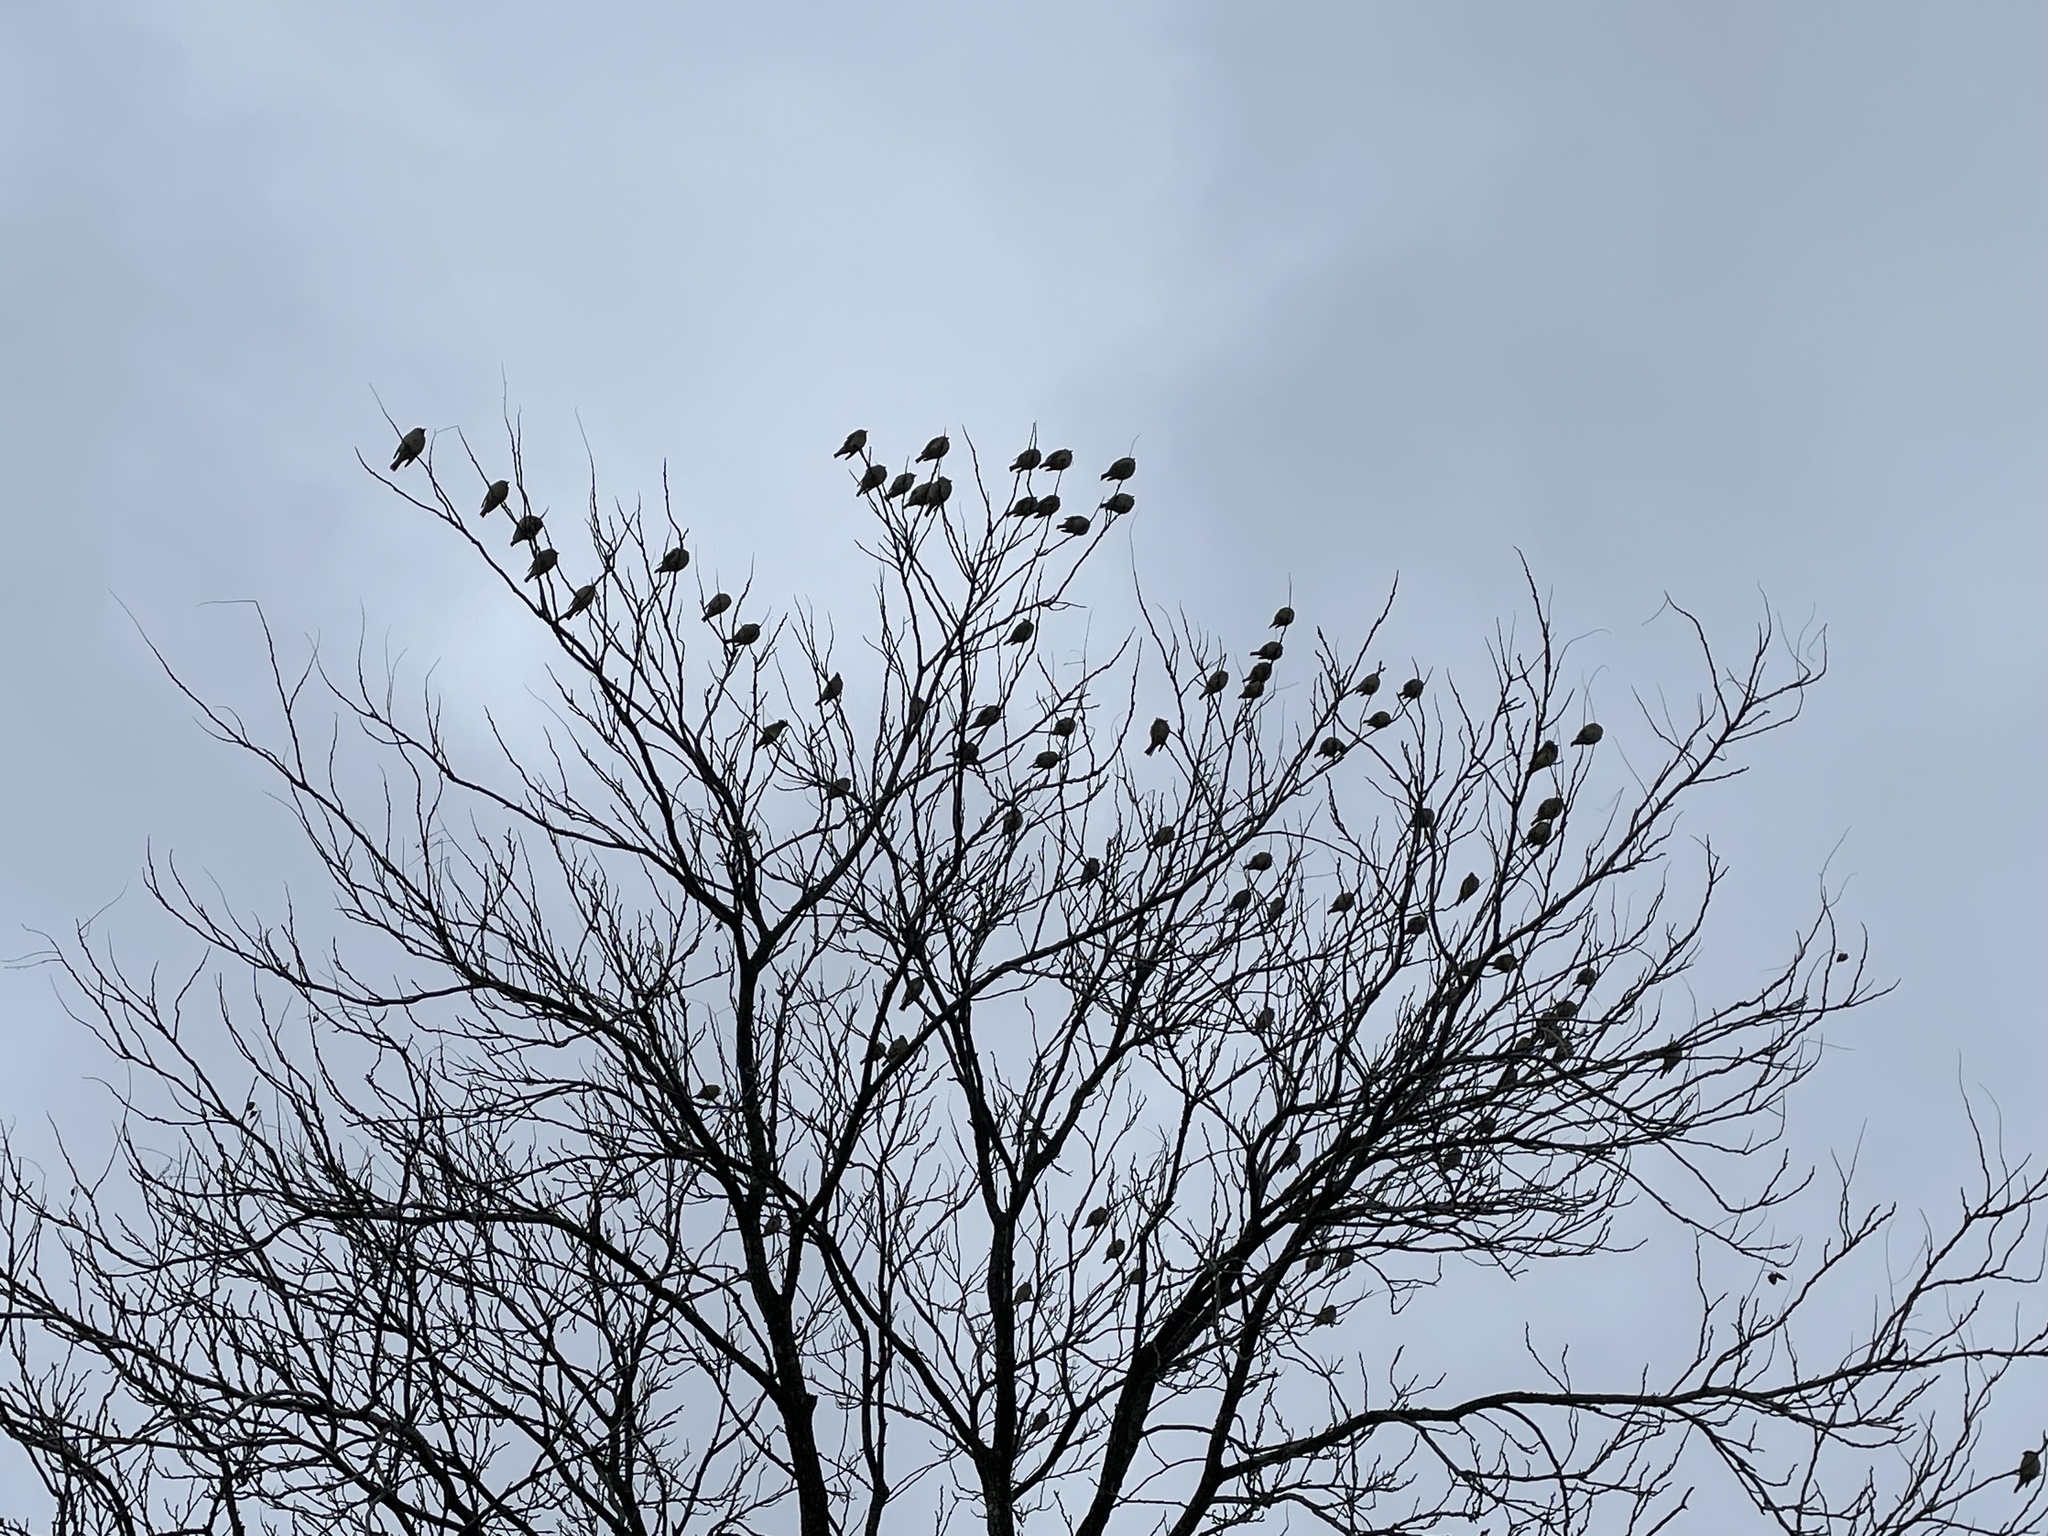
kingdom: Animalia
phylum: Chordata
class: Aves
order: Passeriformes
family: Bombycillidae
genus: Bombycilla
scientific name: Bombycilla cedrorum
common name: Cedar waxwing
